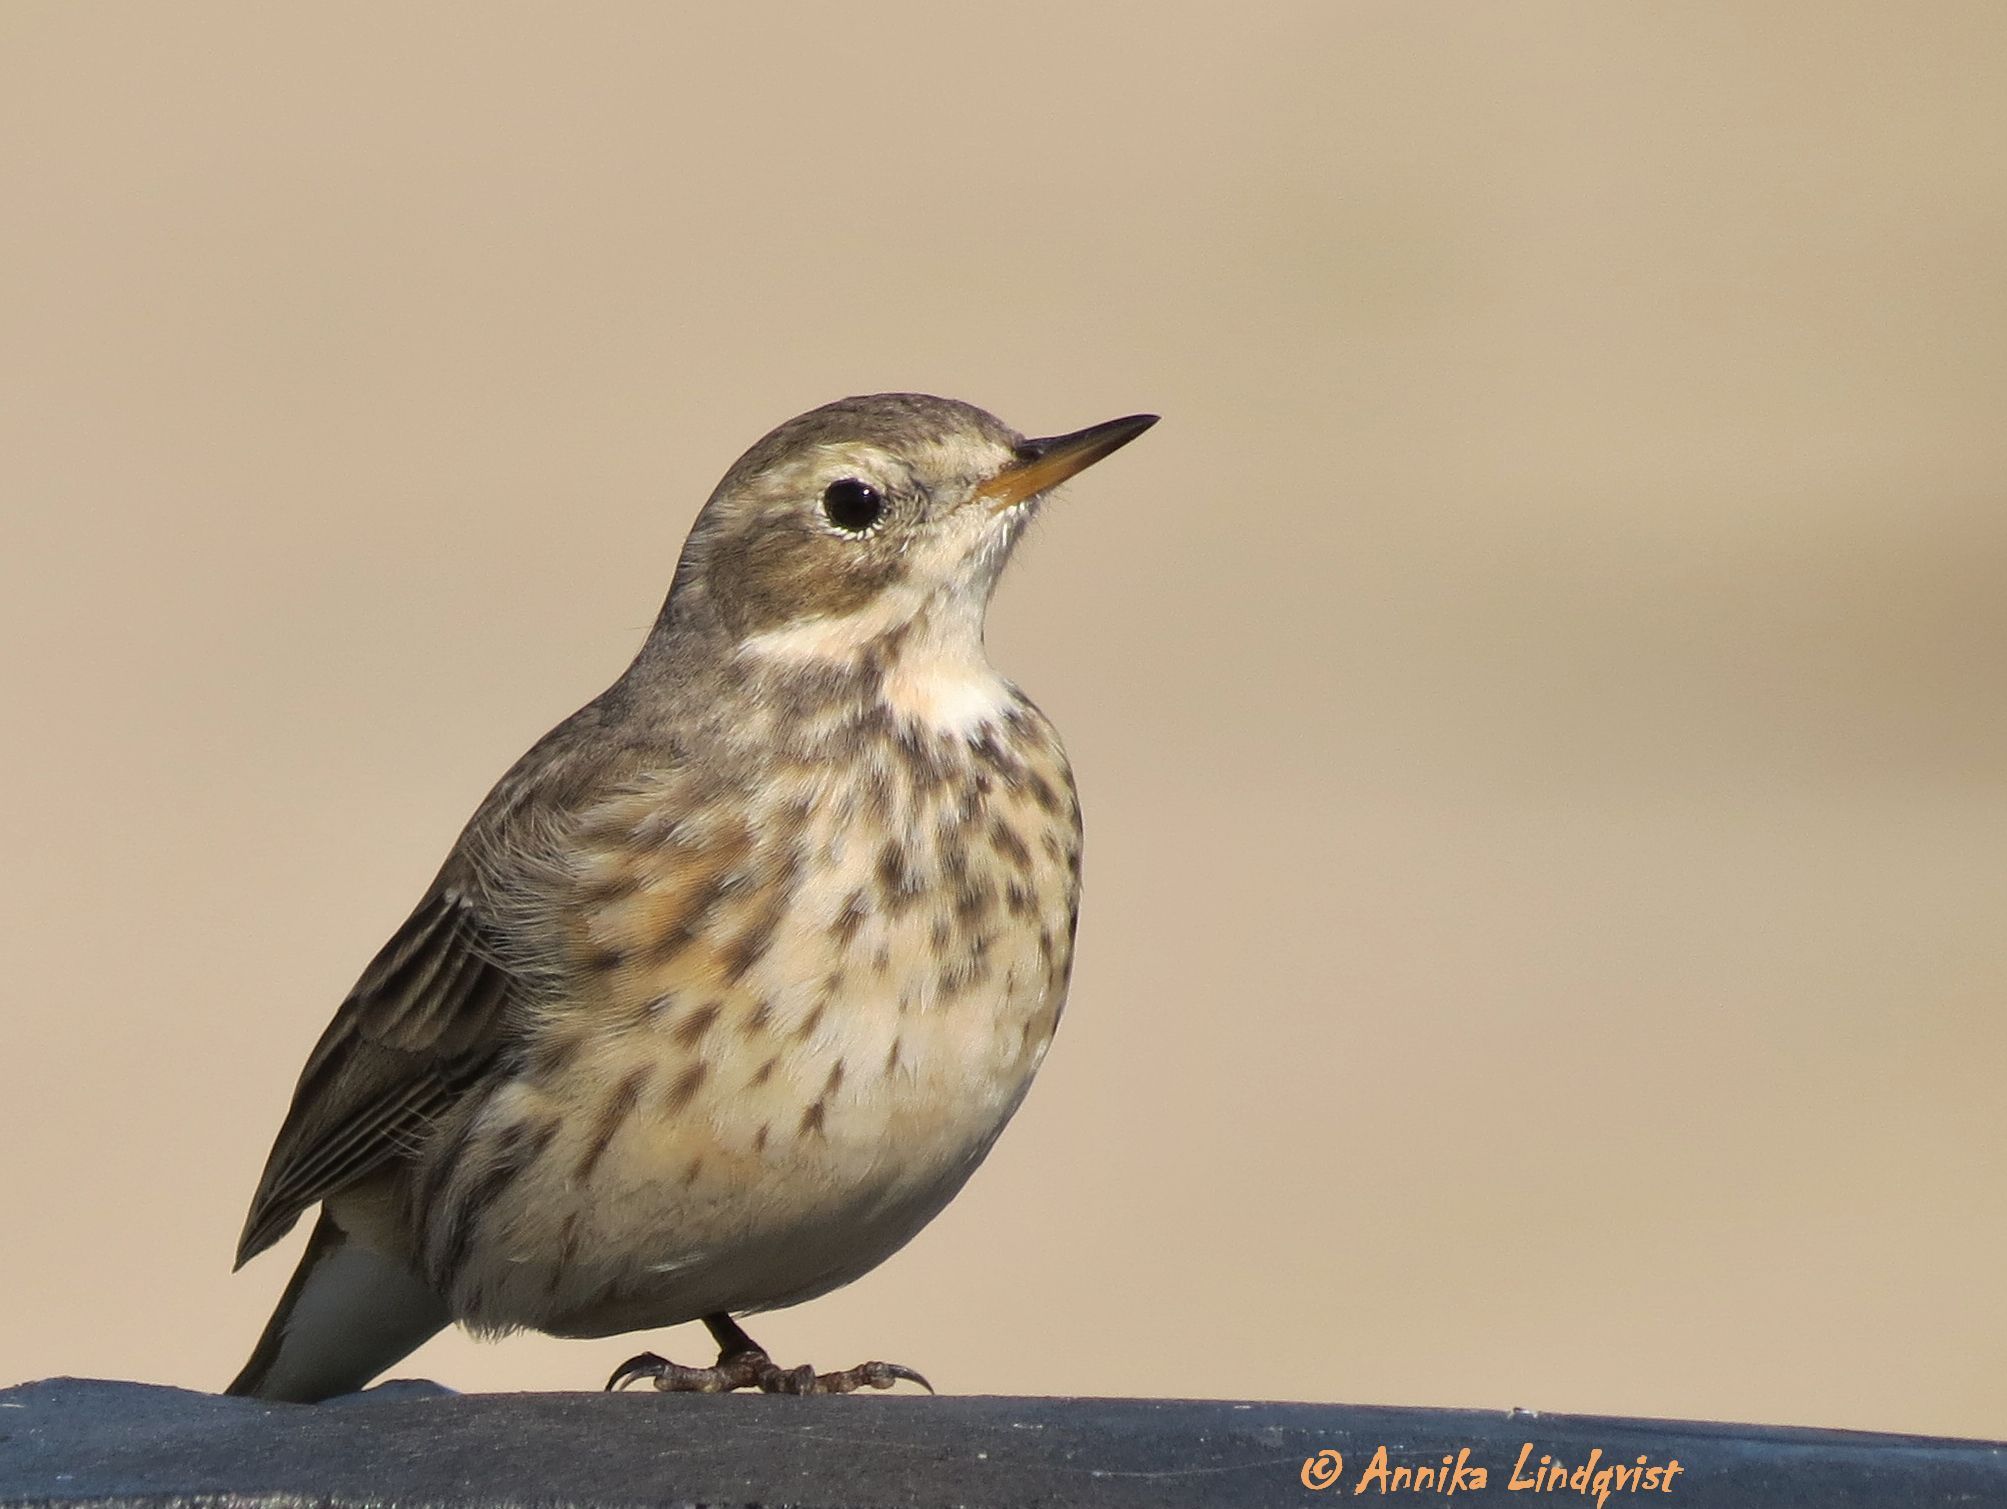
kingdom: Animalia
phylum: Chordata
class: Aves
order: Passeriformes
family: Motacillidae
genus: Anthus
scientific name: Anthus rubescens
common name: Buff-bellied pipit
